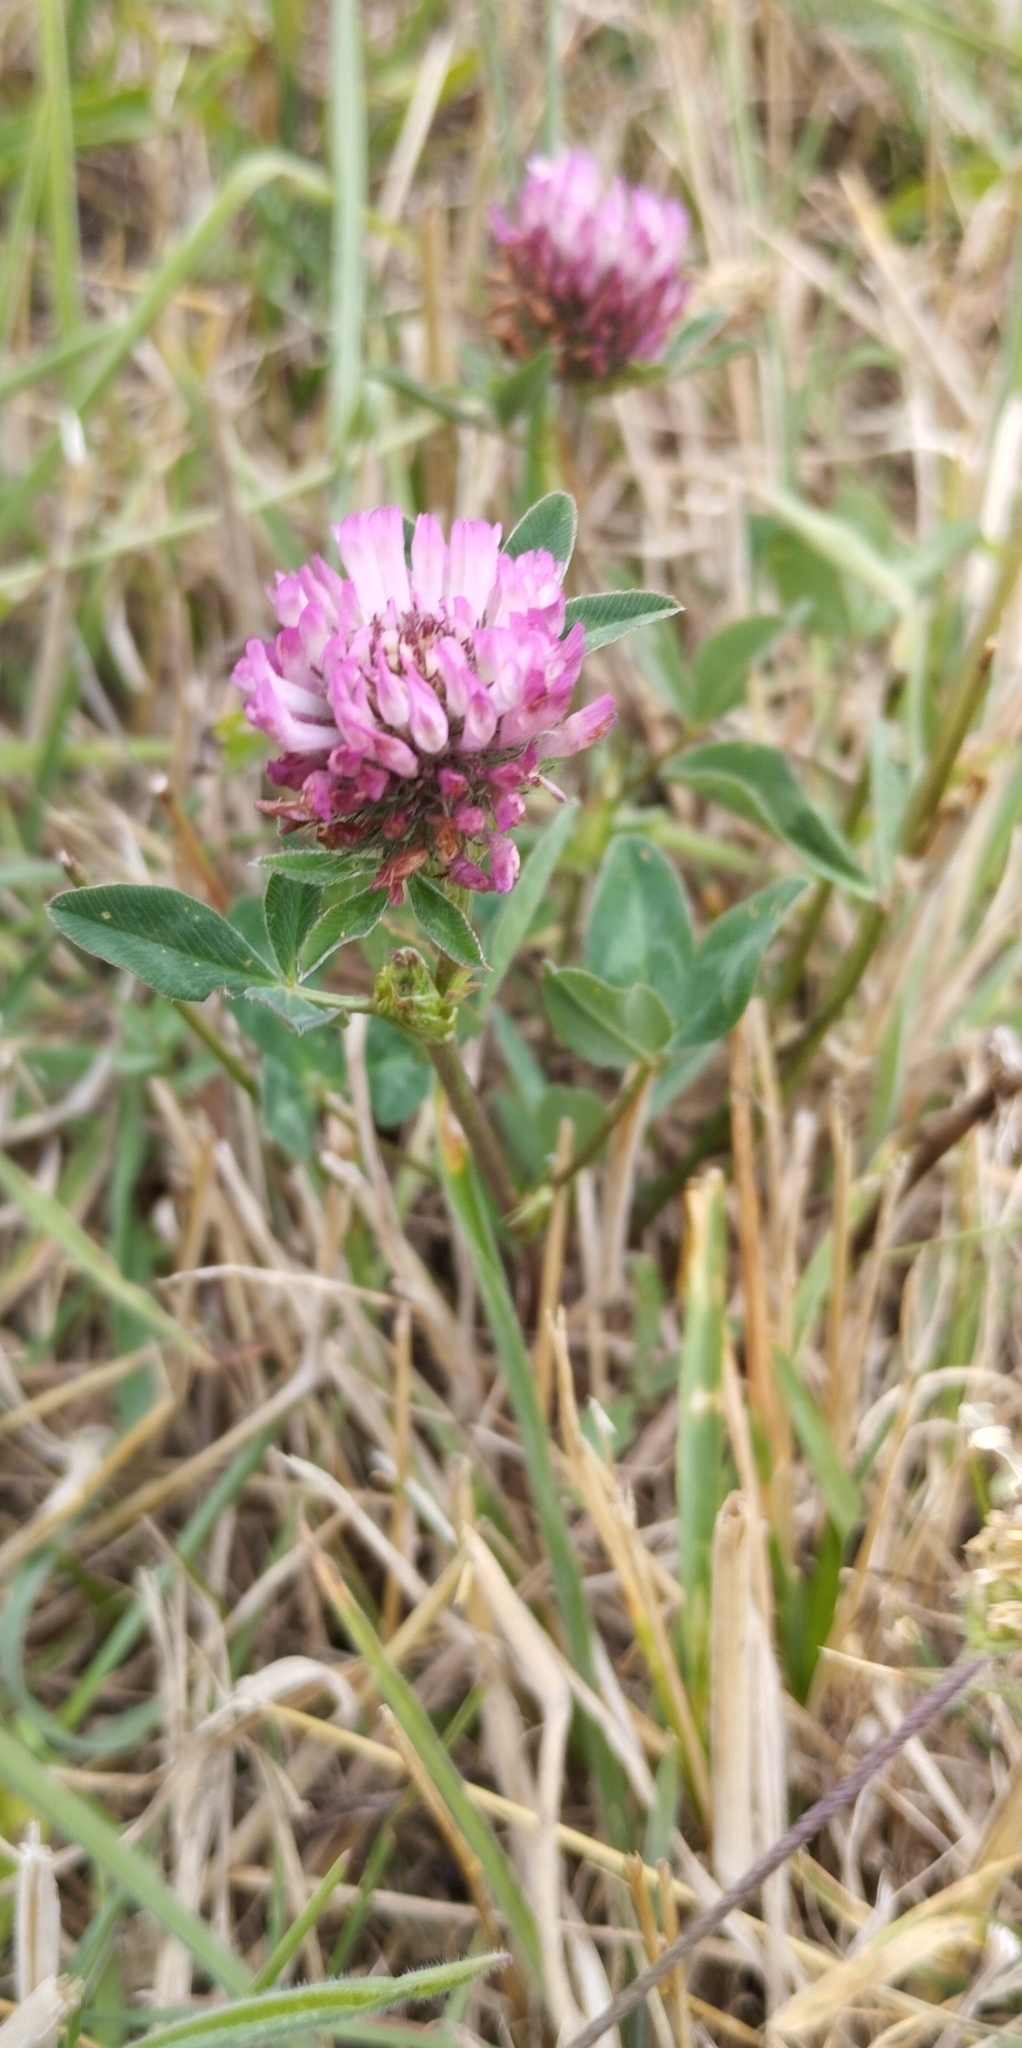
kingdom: Plantae
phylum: Tracheophyta
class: Magnoliopsida
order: Fabales
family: Fabaceae
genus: Trifolium
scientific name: Trifolium pratense
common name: Red clover
